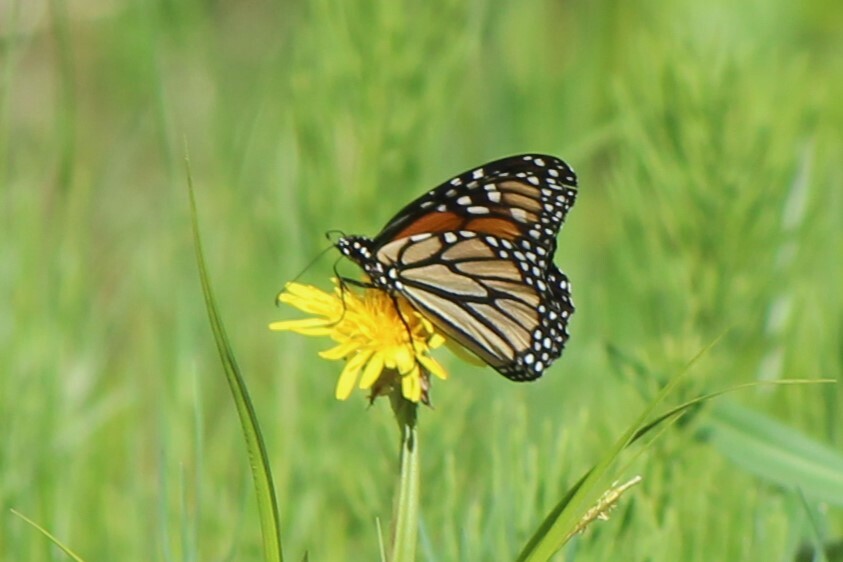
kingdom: Animalia
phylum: Arthropoda
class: Insecta
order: Lepidoptera
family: Nymphalidae
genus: Danaus
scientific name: Danaus plexippus
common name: Monarch
